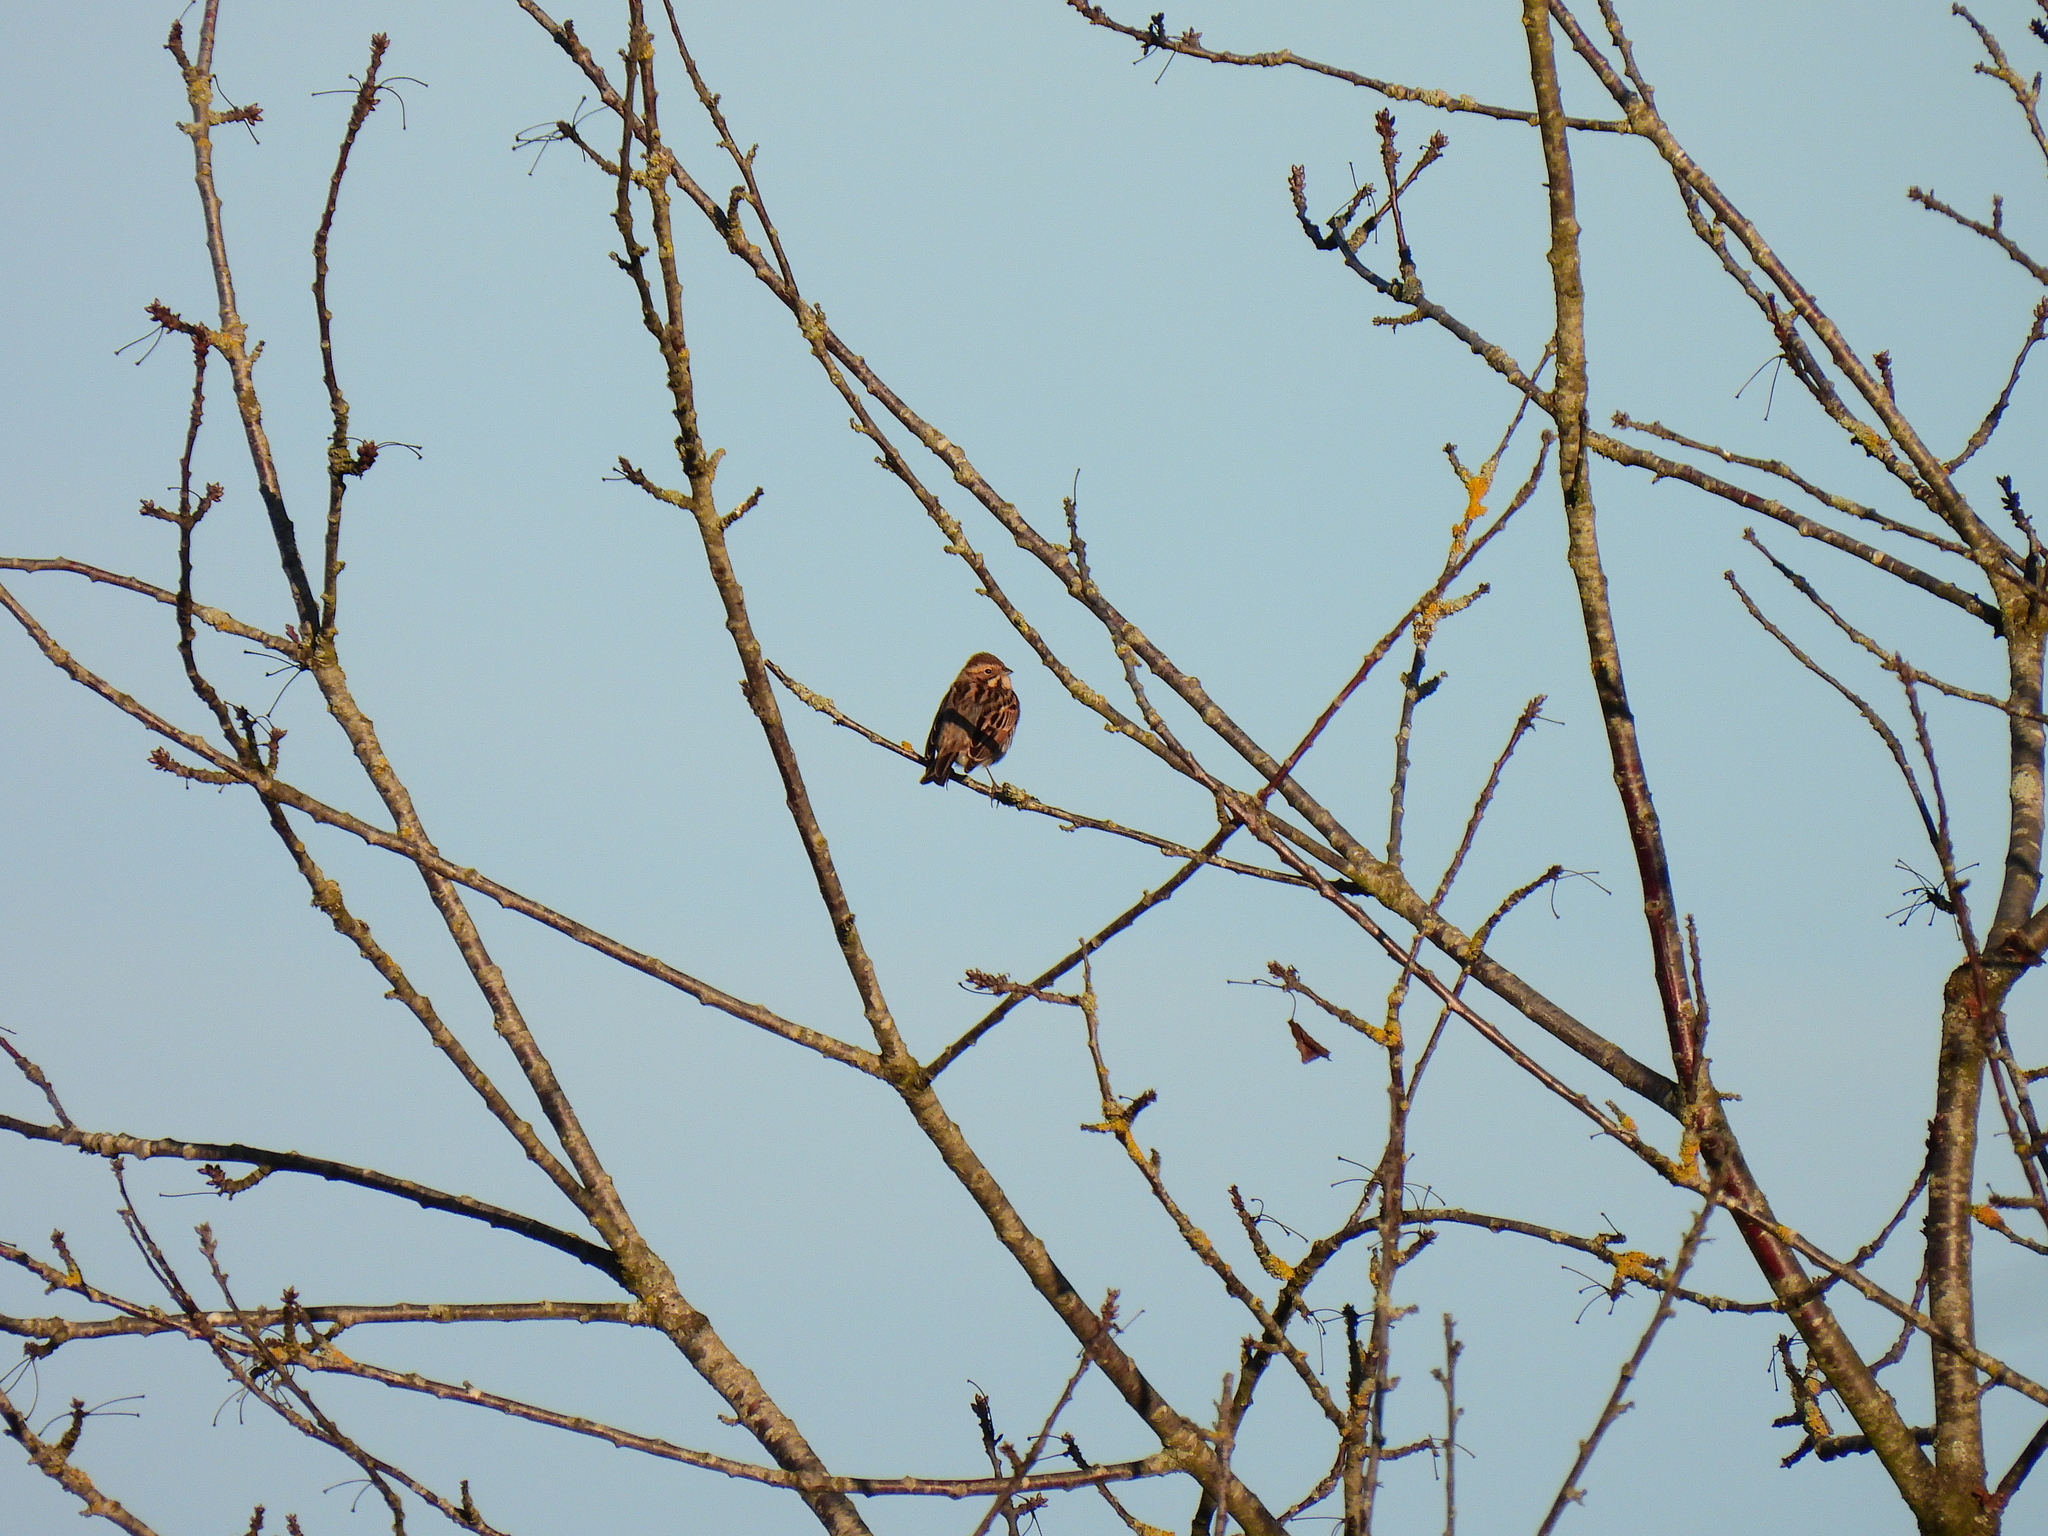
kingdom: Animalia
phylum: Chordata
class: Aves
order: Passeriformes
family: Emberizidae
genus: Emberiza
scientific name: Emberiza schoeniclus
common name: Reed bunting
